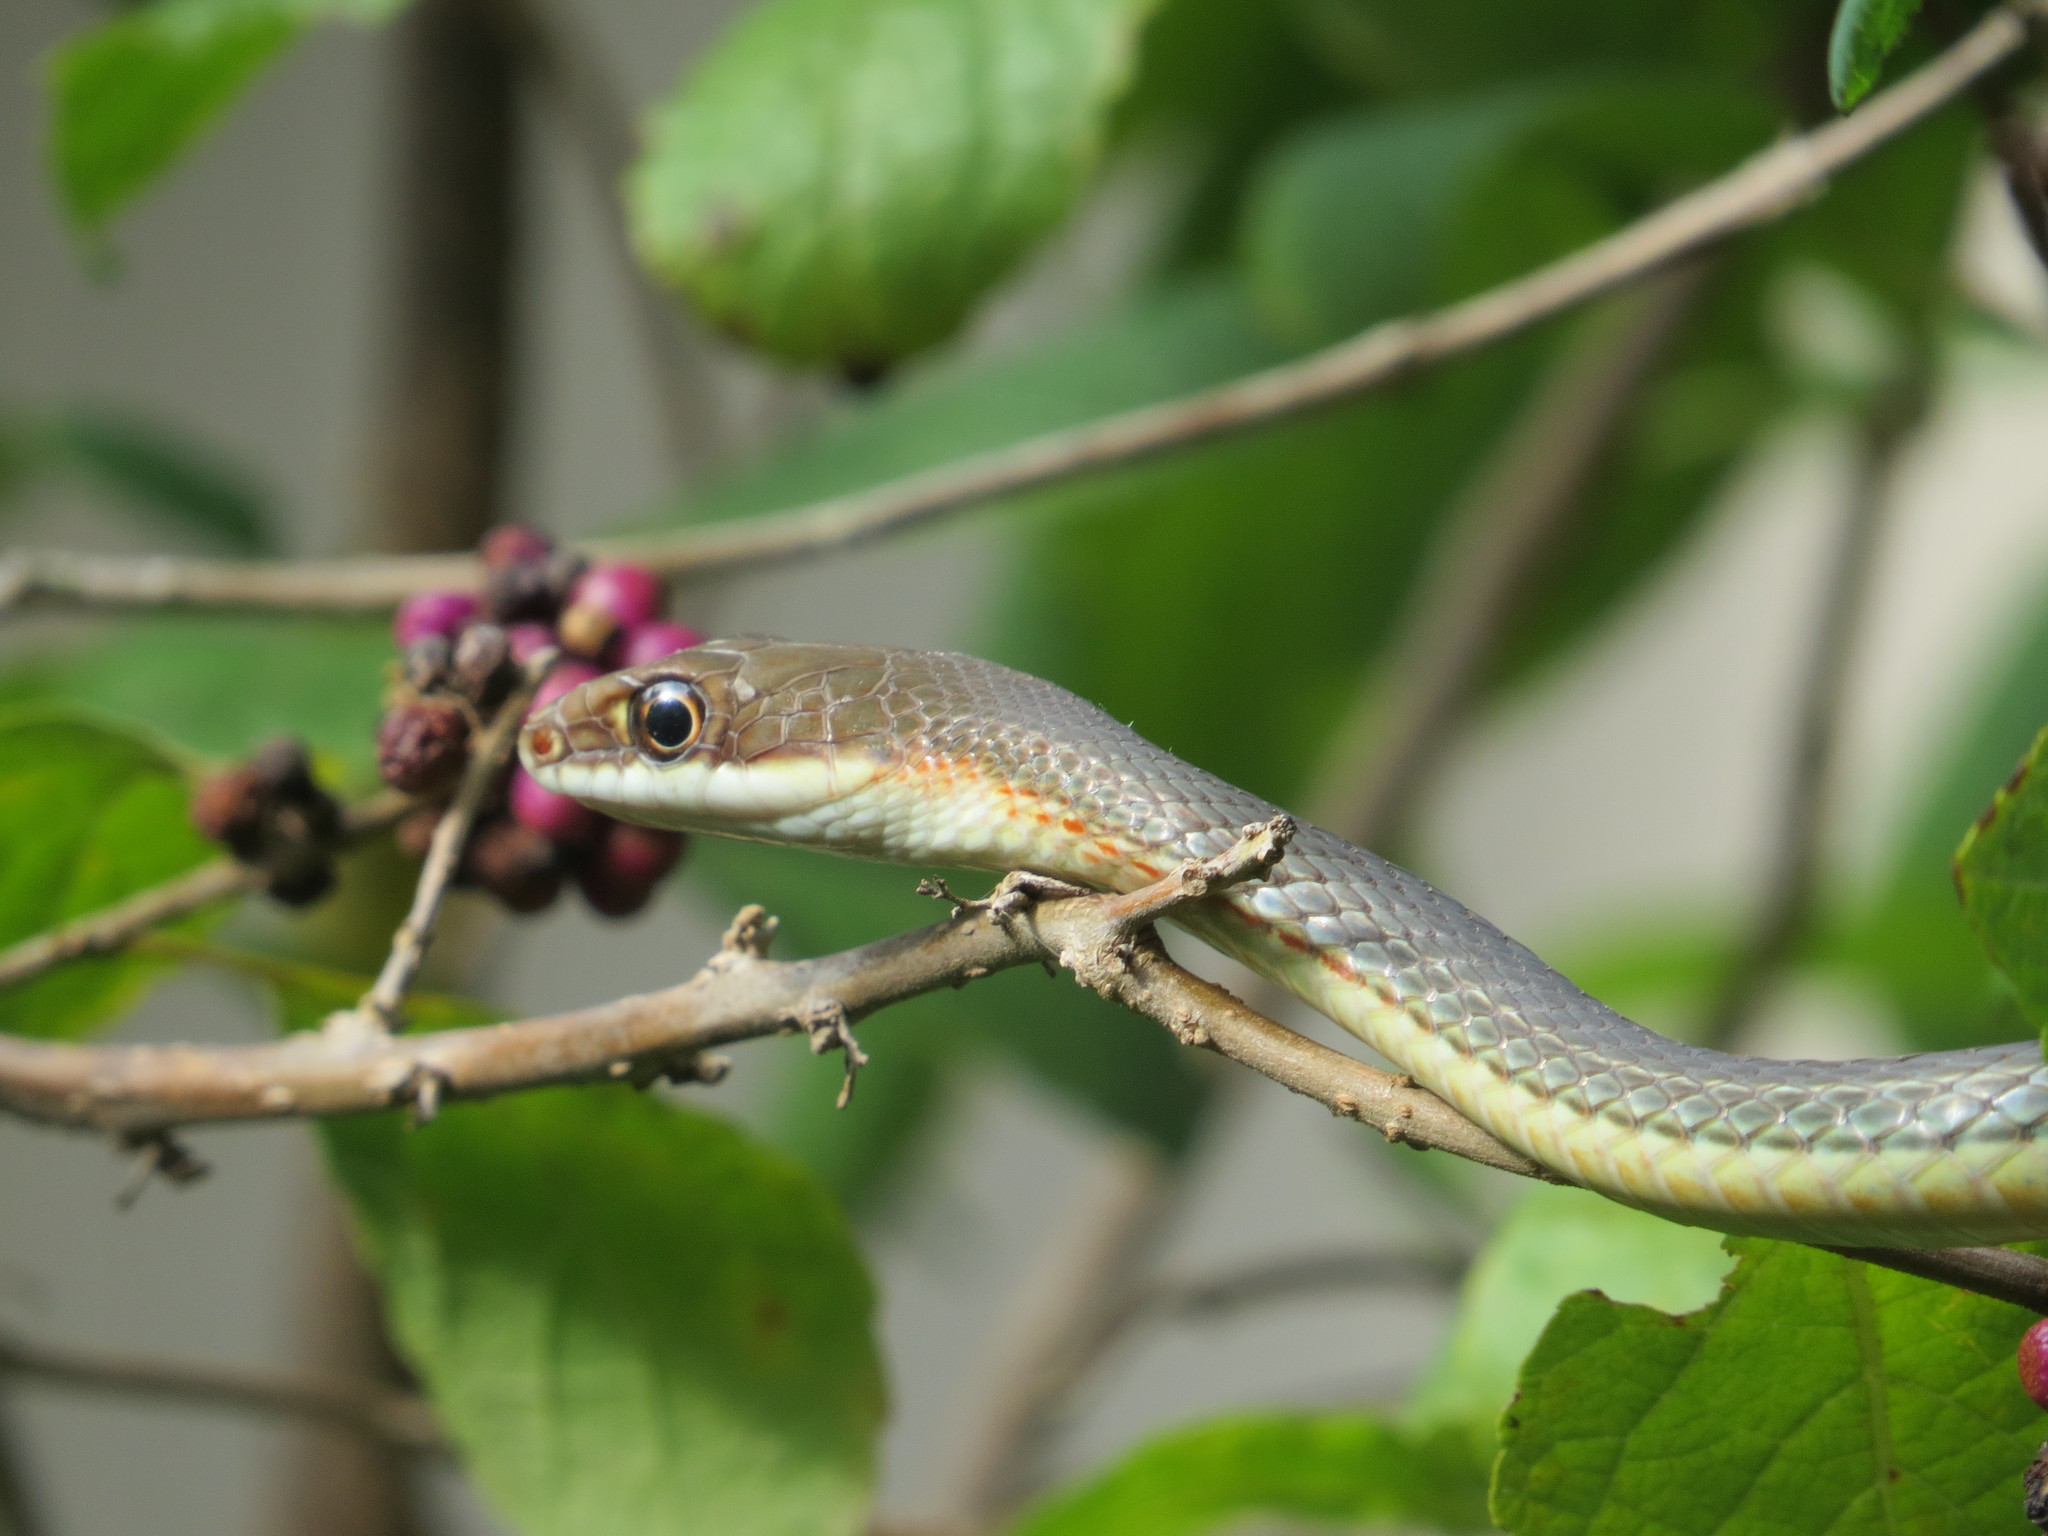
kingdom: Animalia
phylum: Chordata
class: Squamata
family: Colubridae
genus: Masticophis
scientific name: Masticophis schotti
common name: Schott's whipsnake
